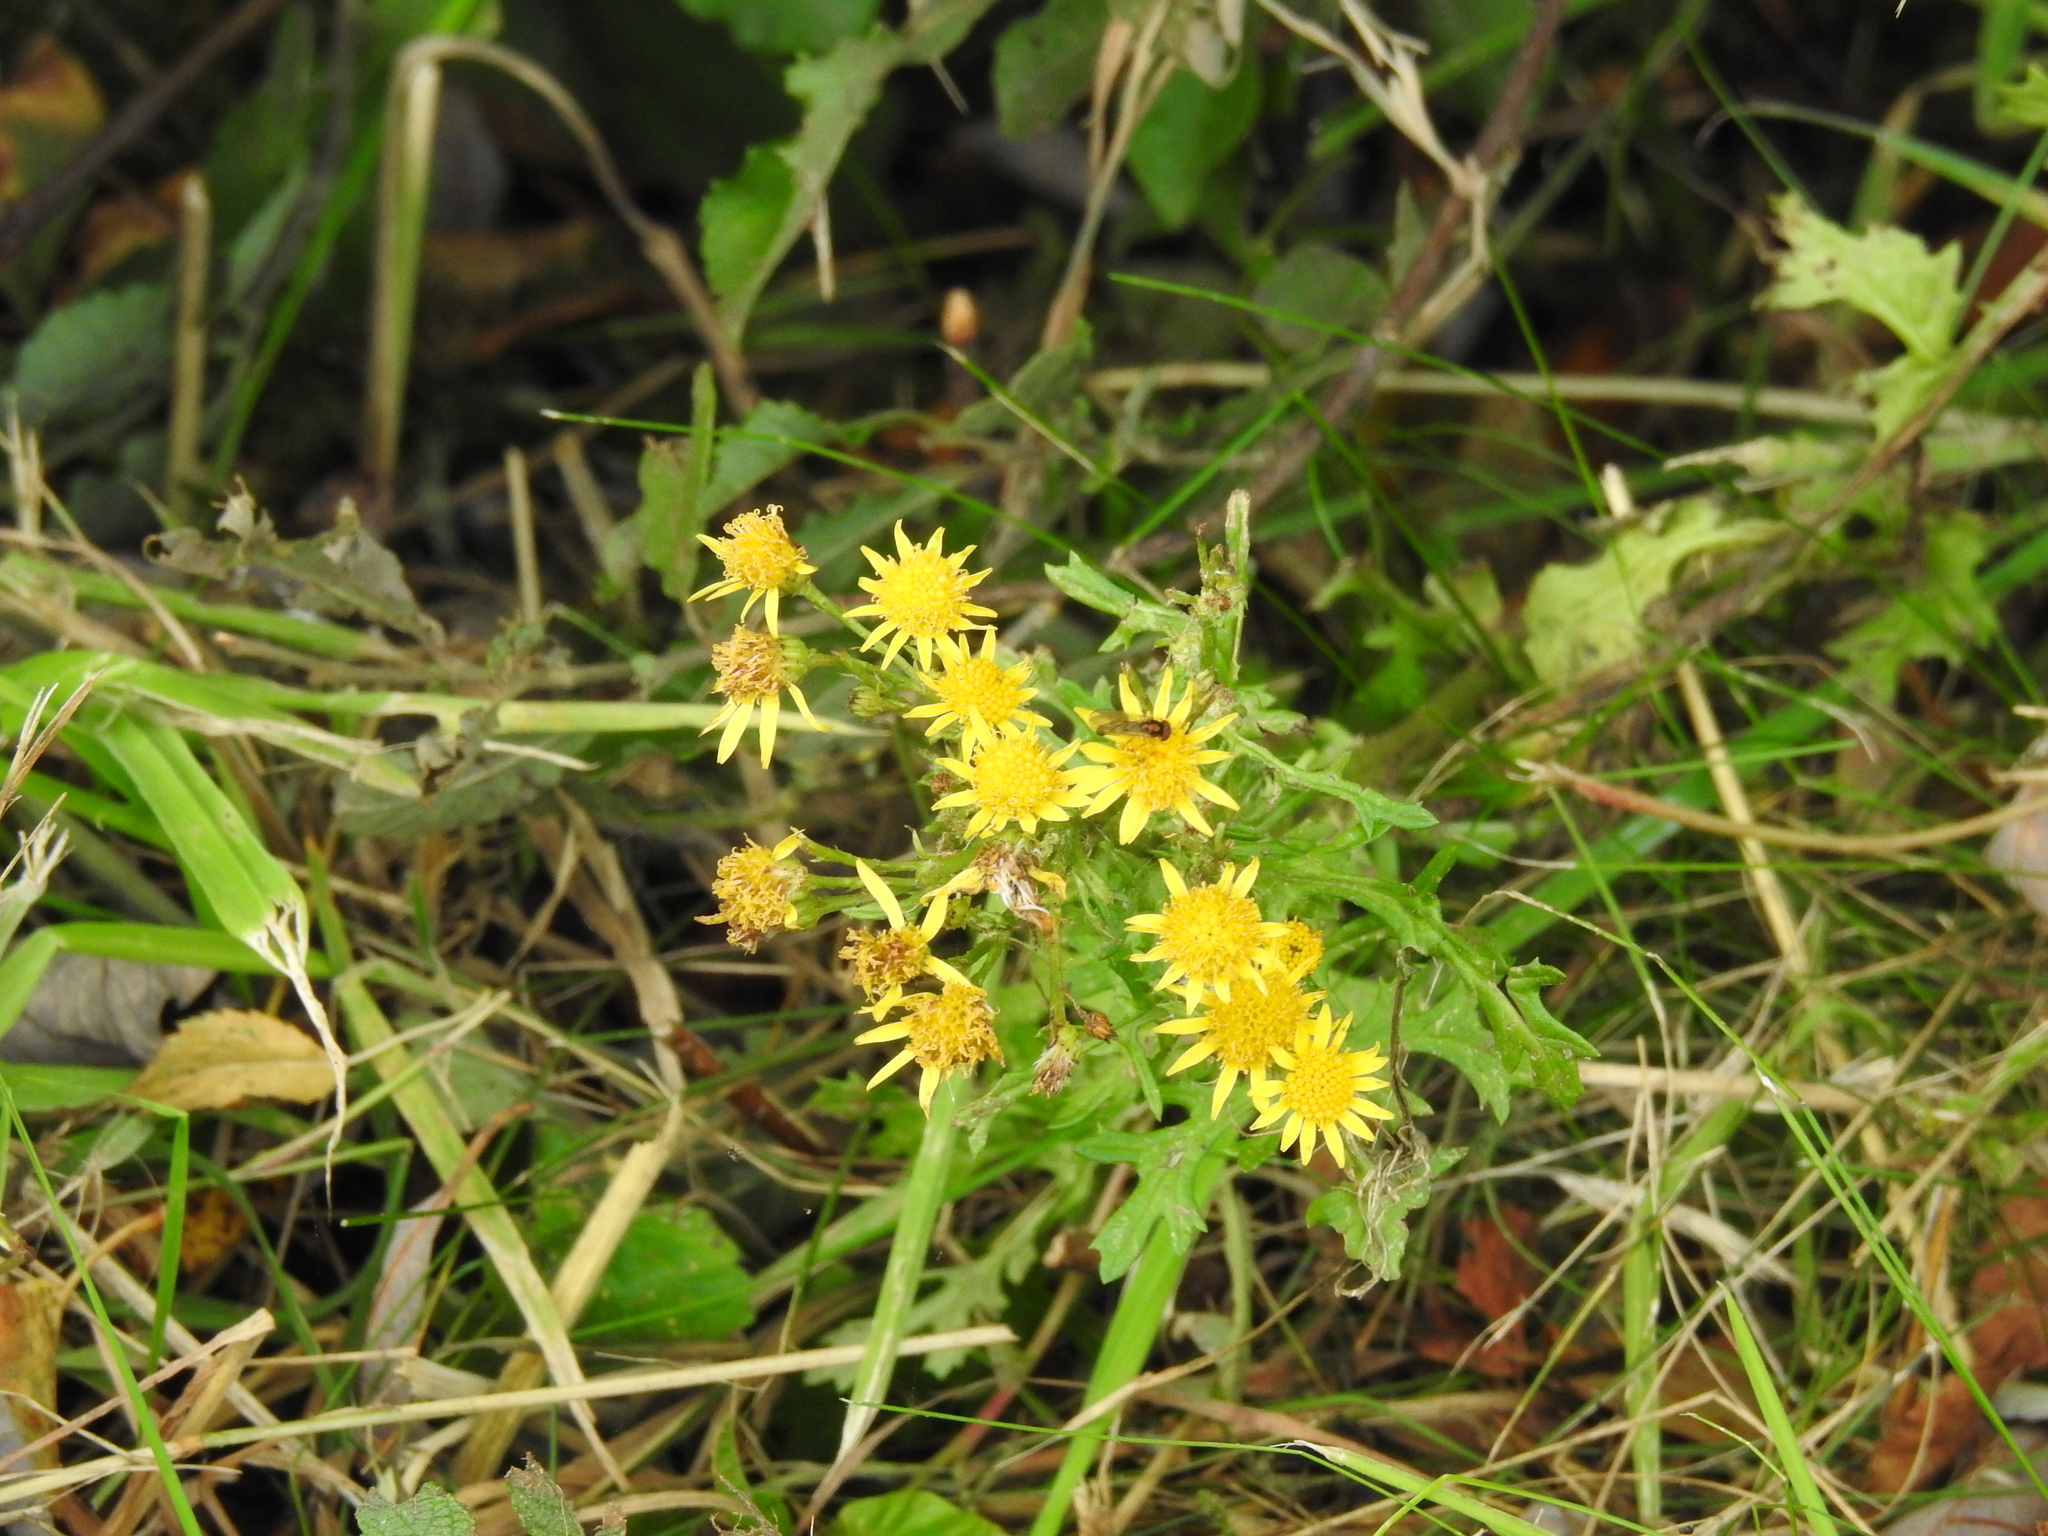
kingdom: Plantae
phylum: Tracheophyta
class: Magnoliopsida
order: Asterales
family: Asteraceae
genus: Jacobaea
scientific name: Jacobaea vulgaris
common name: Stinking willie
